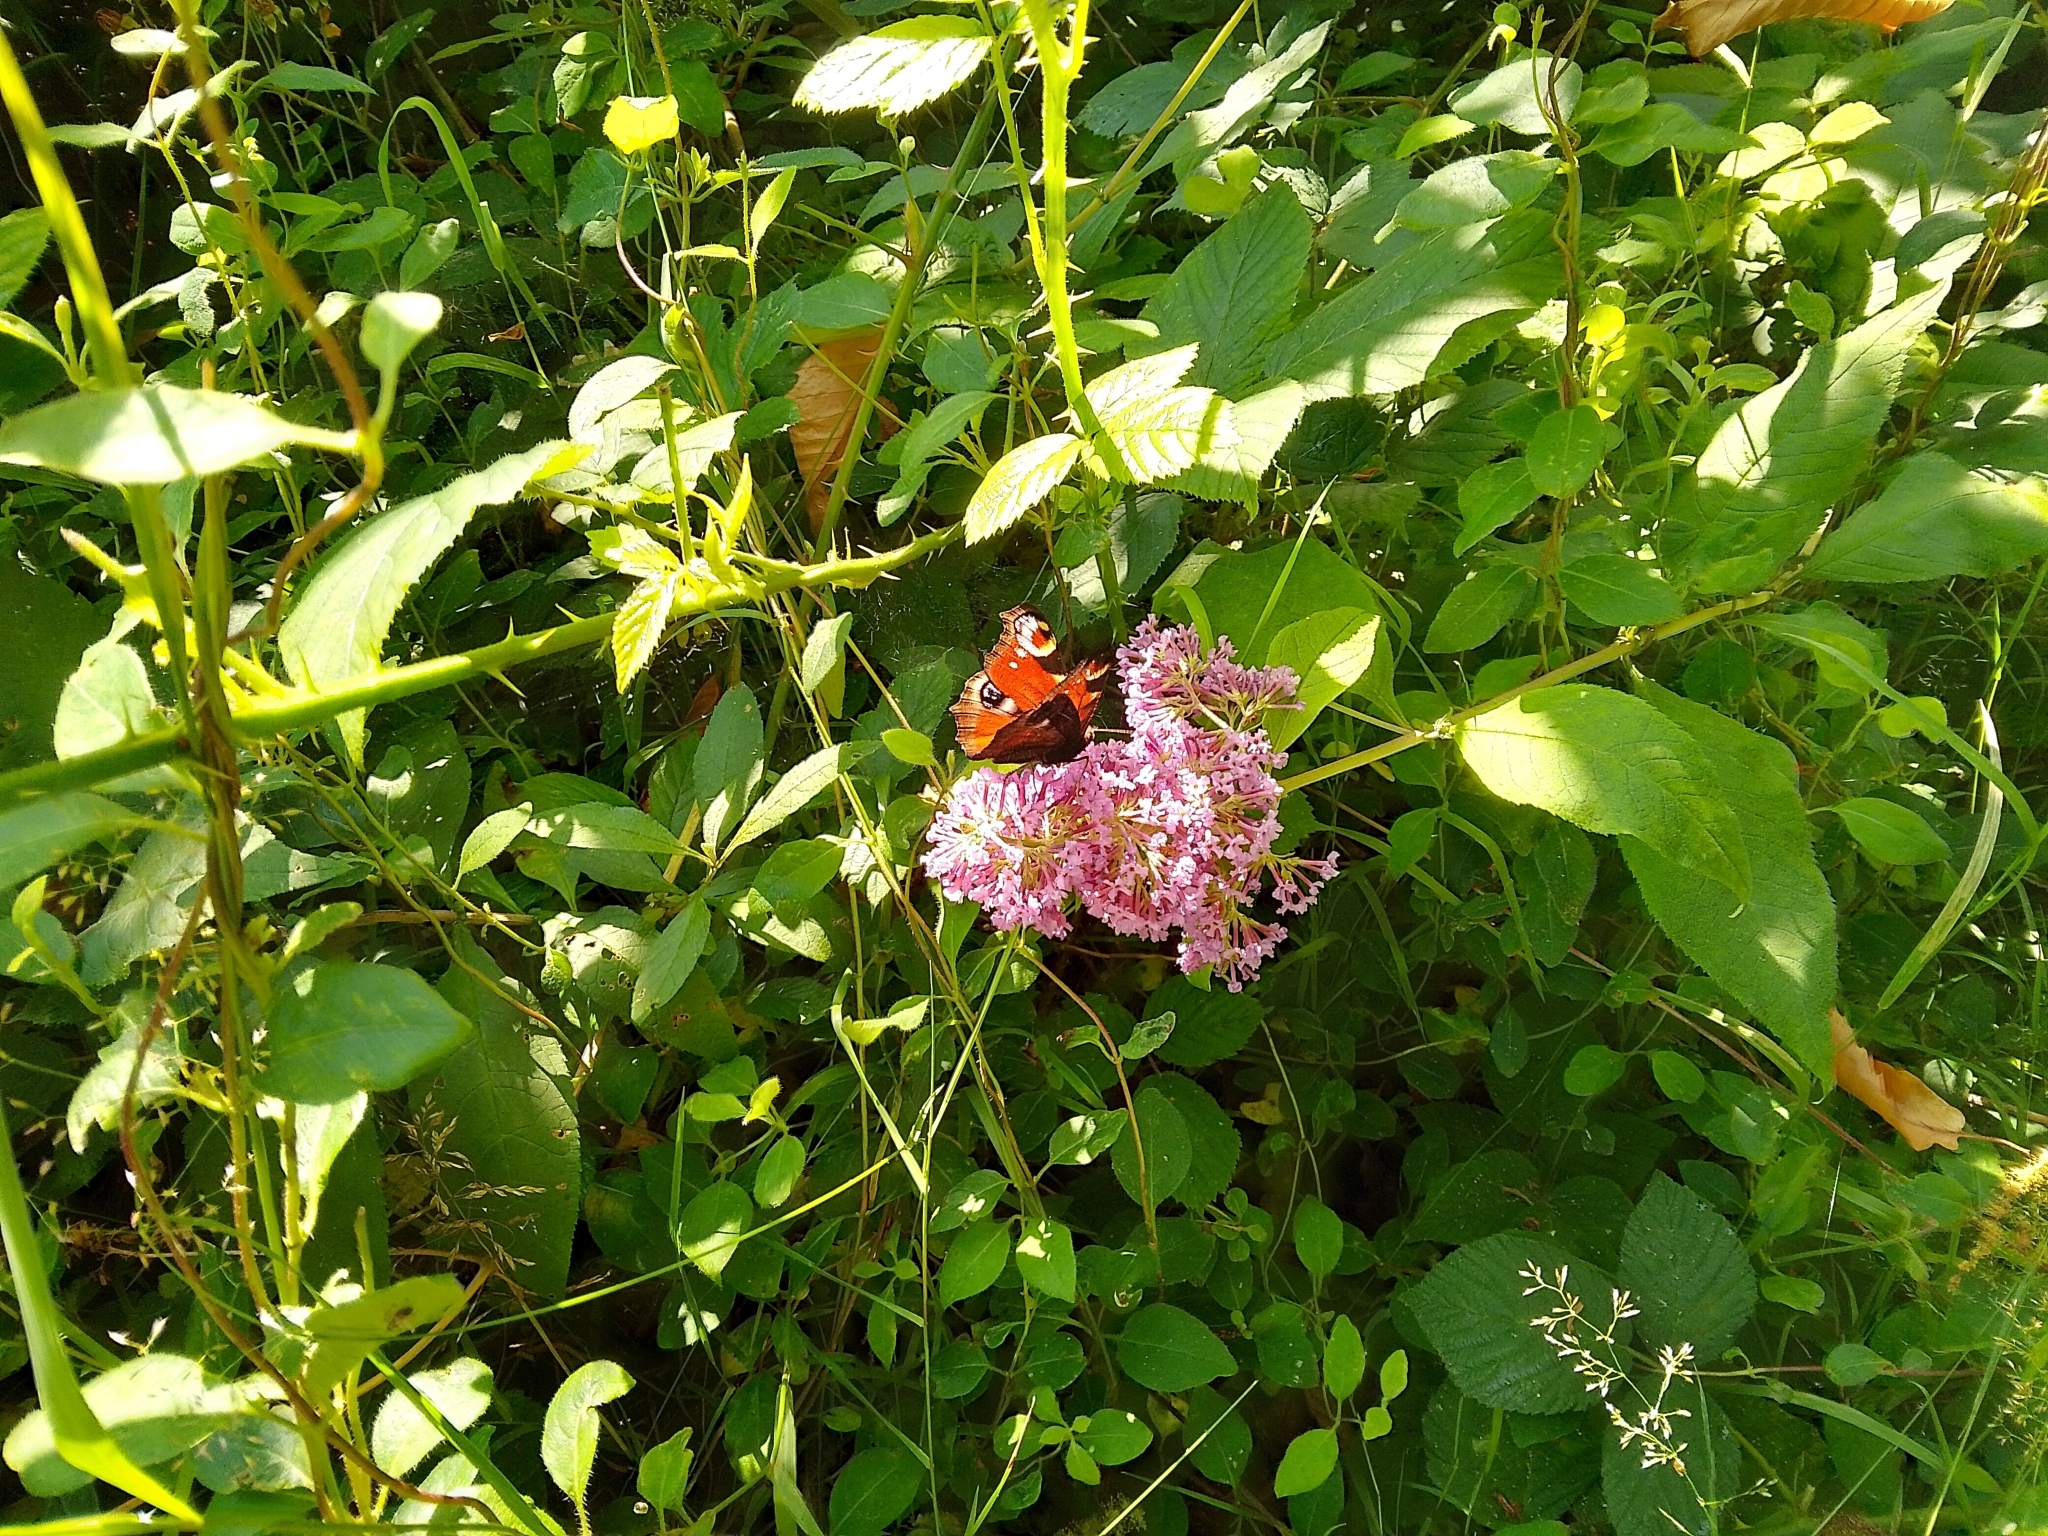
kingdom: Animalia
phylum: Arthropoda
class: Insecta
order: Lepidoptera
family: Nymphalidae
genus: Aglais
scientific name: Aglais io
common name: Peacock
